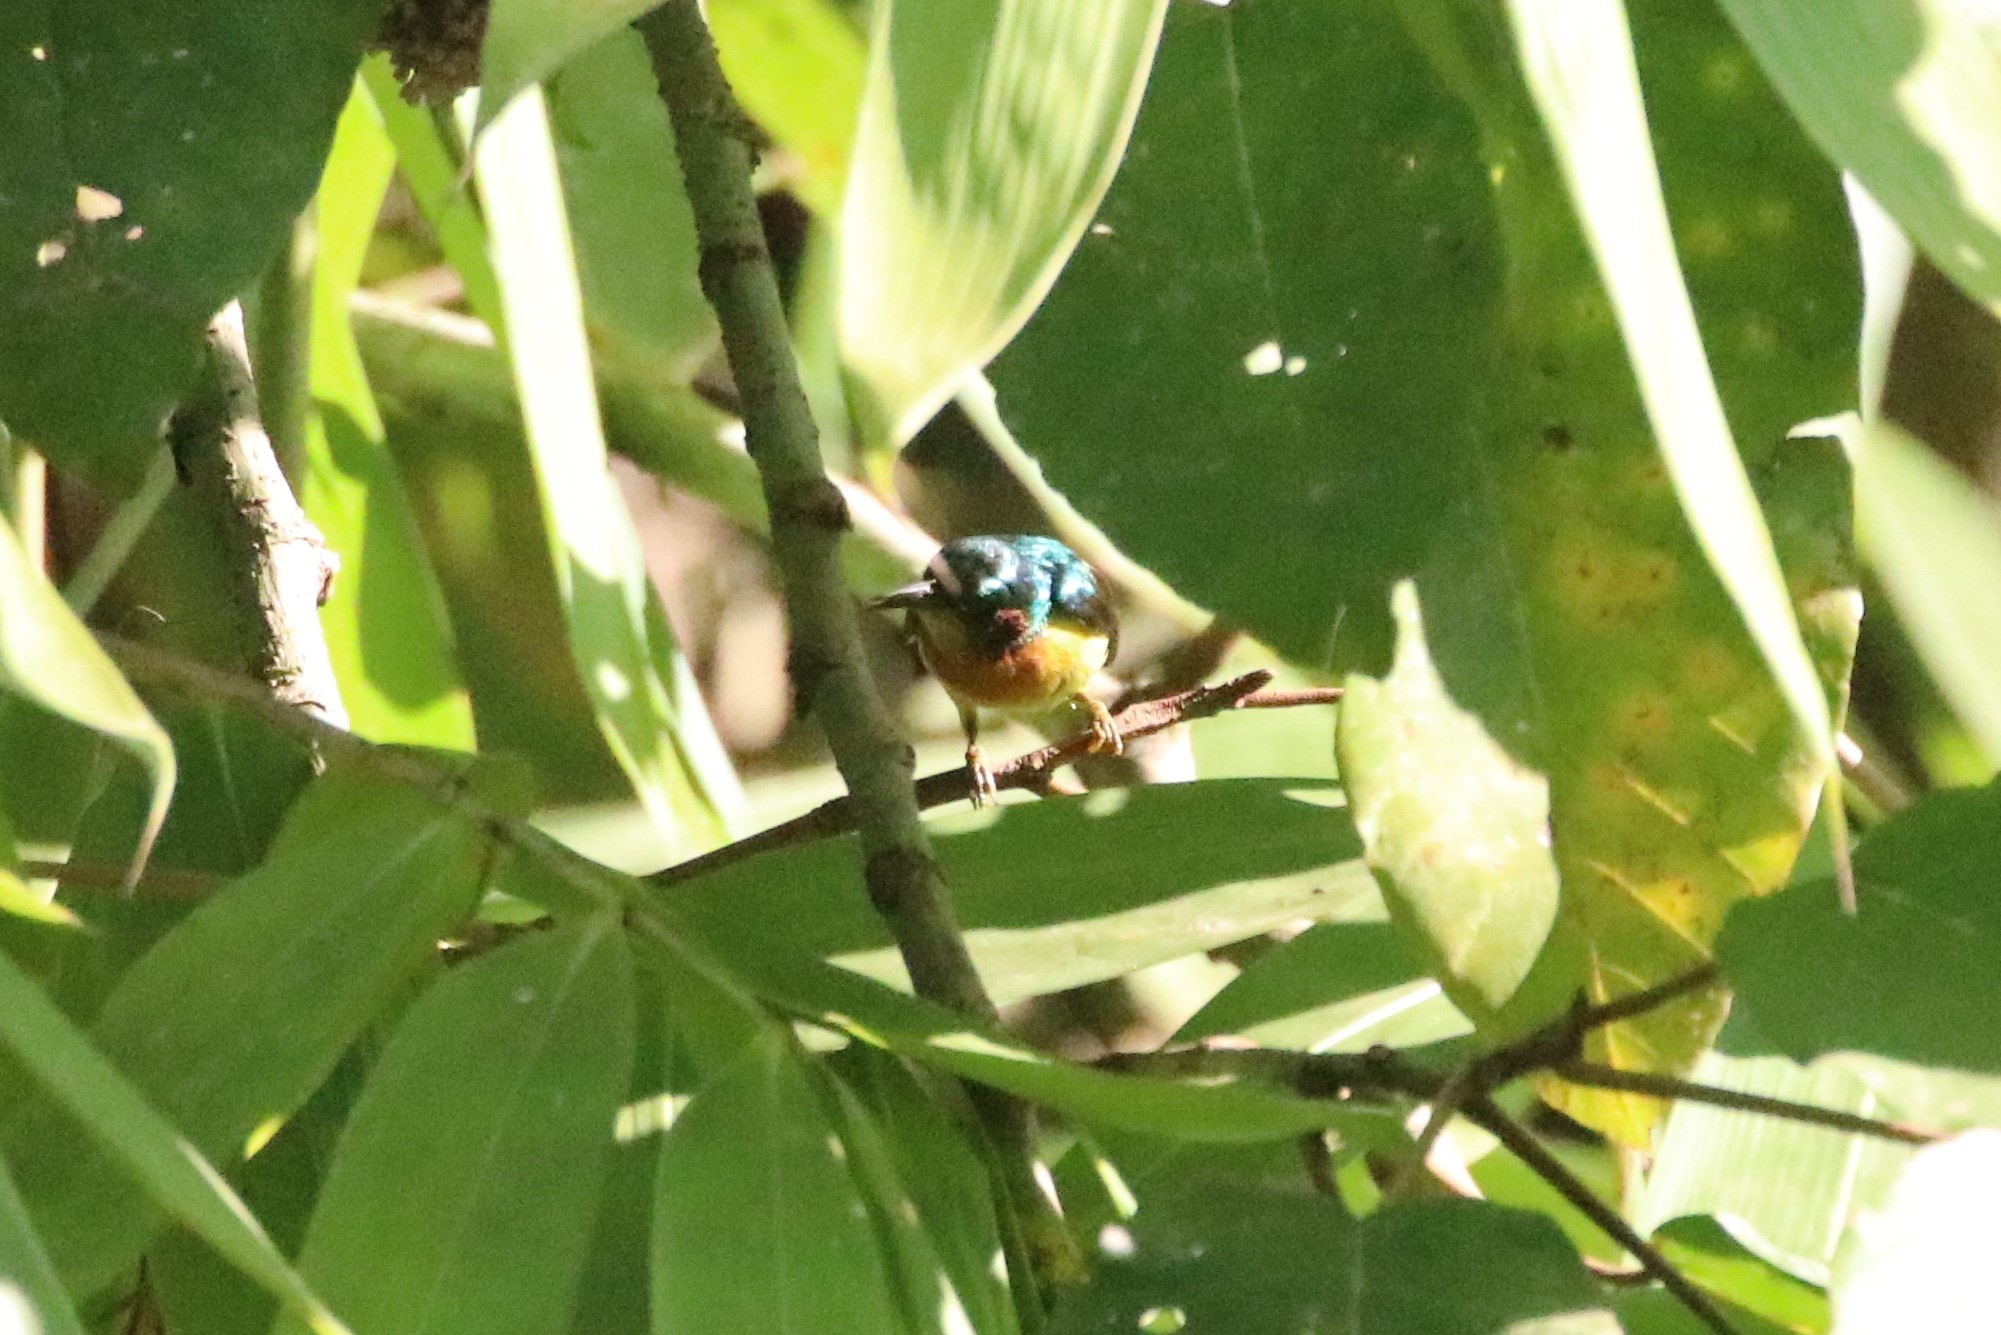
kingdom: Animalia
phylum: Chordata
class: Aves
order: Passeriformes
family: Nectariniidae
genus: Chalcoparia
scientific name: Chalcoparia singalensis
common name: Ruby-cheeked sunbird
